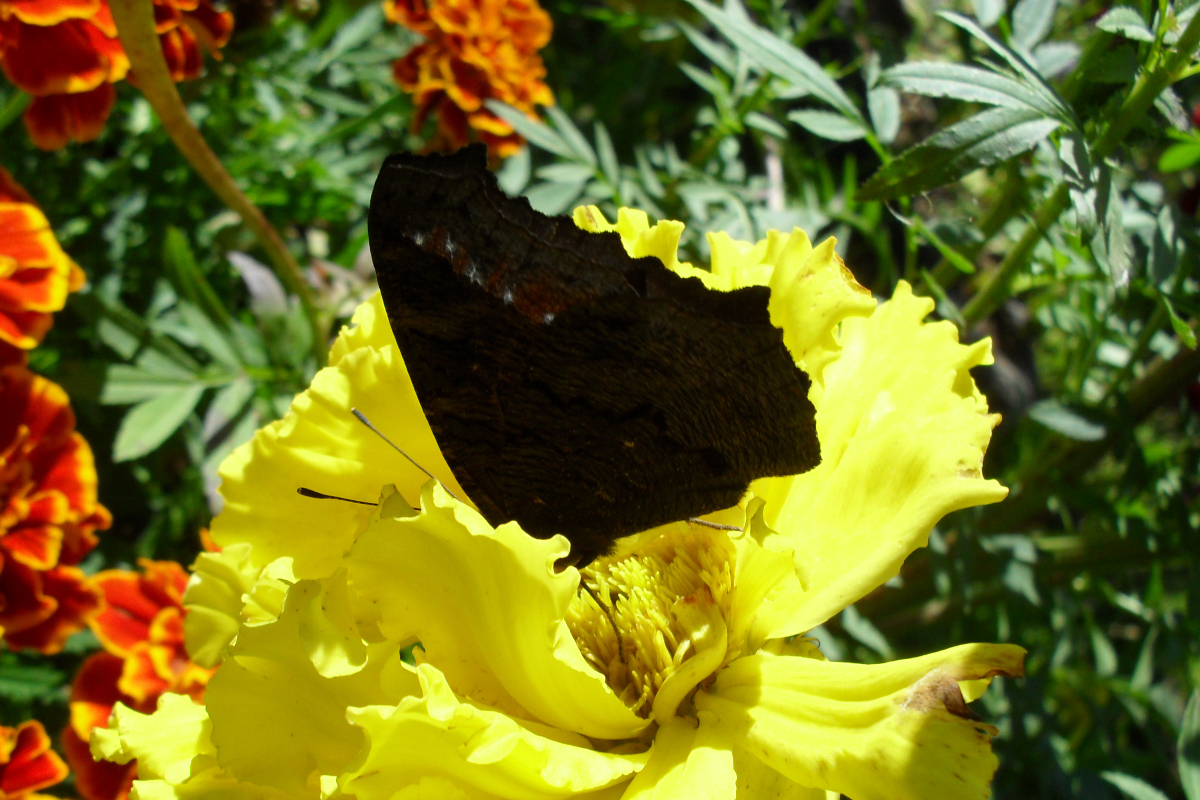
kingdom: Animalia
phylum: Arthropoda
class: Insecta
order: Lepidoptera
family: Nymphalidae
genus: Aglais
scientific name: Aglais io
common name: Peacock
